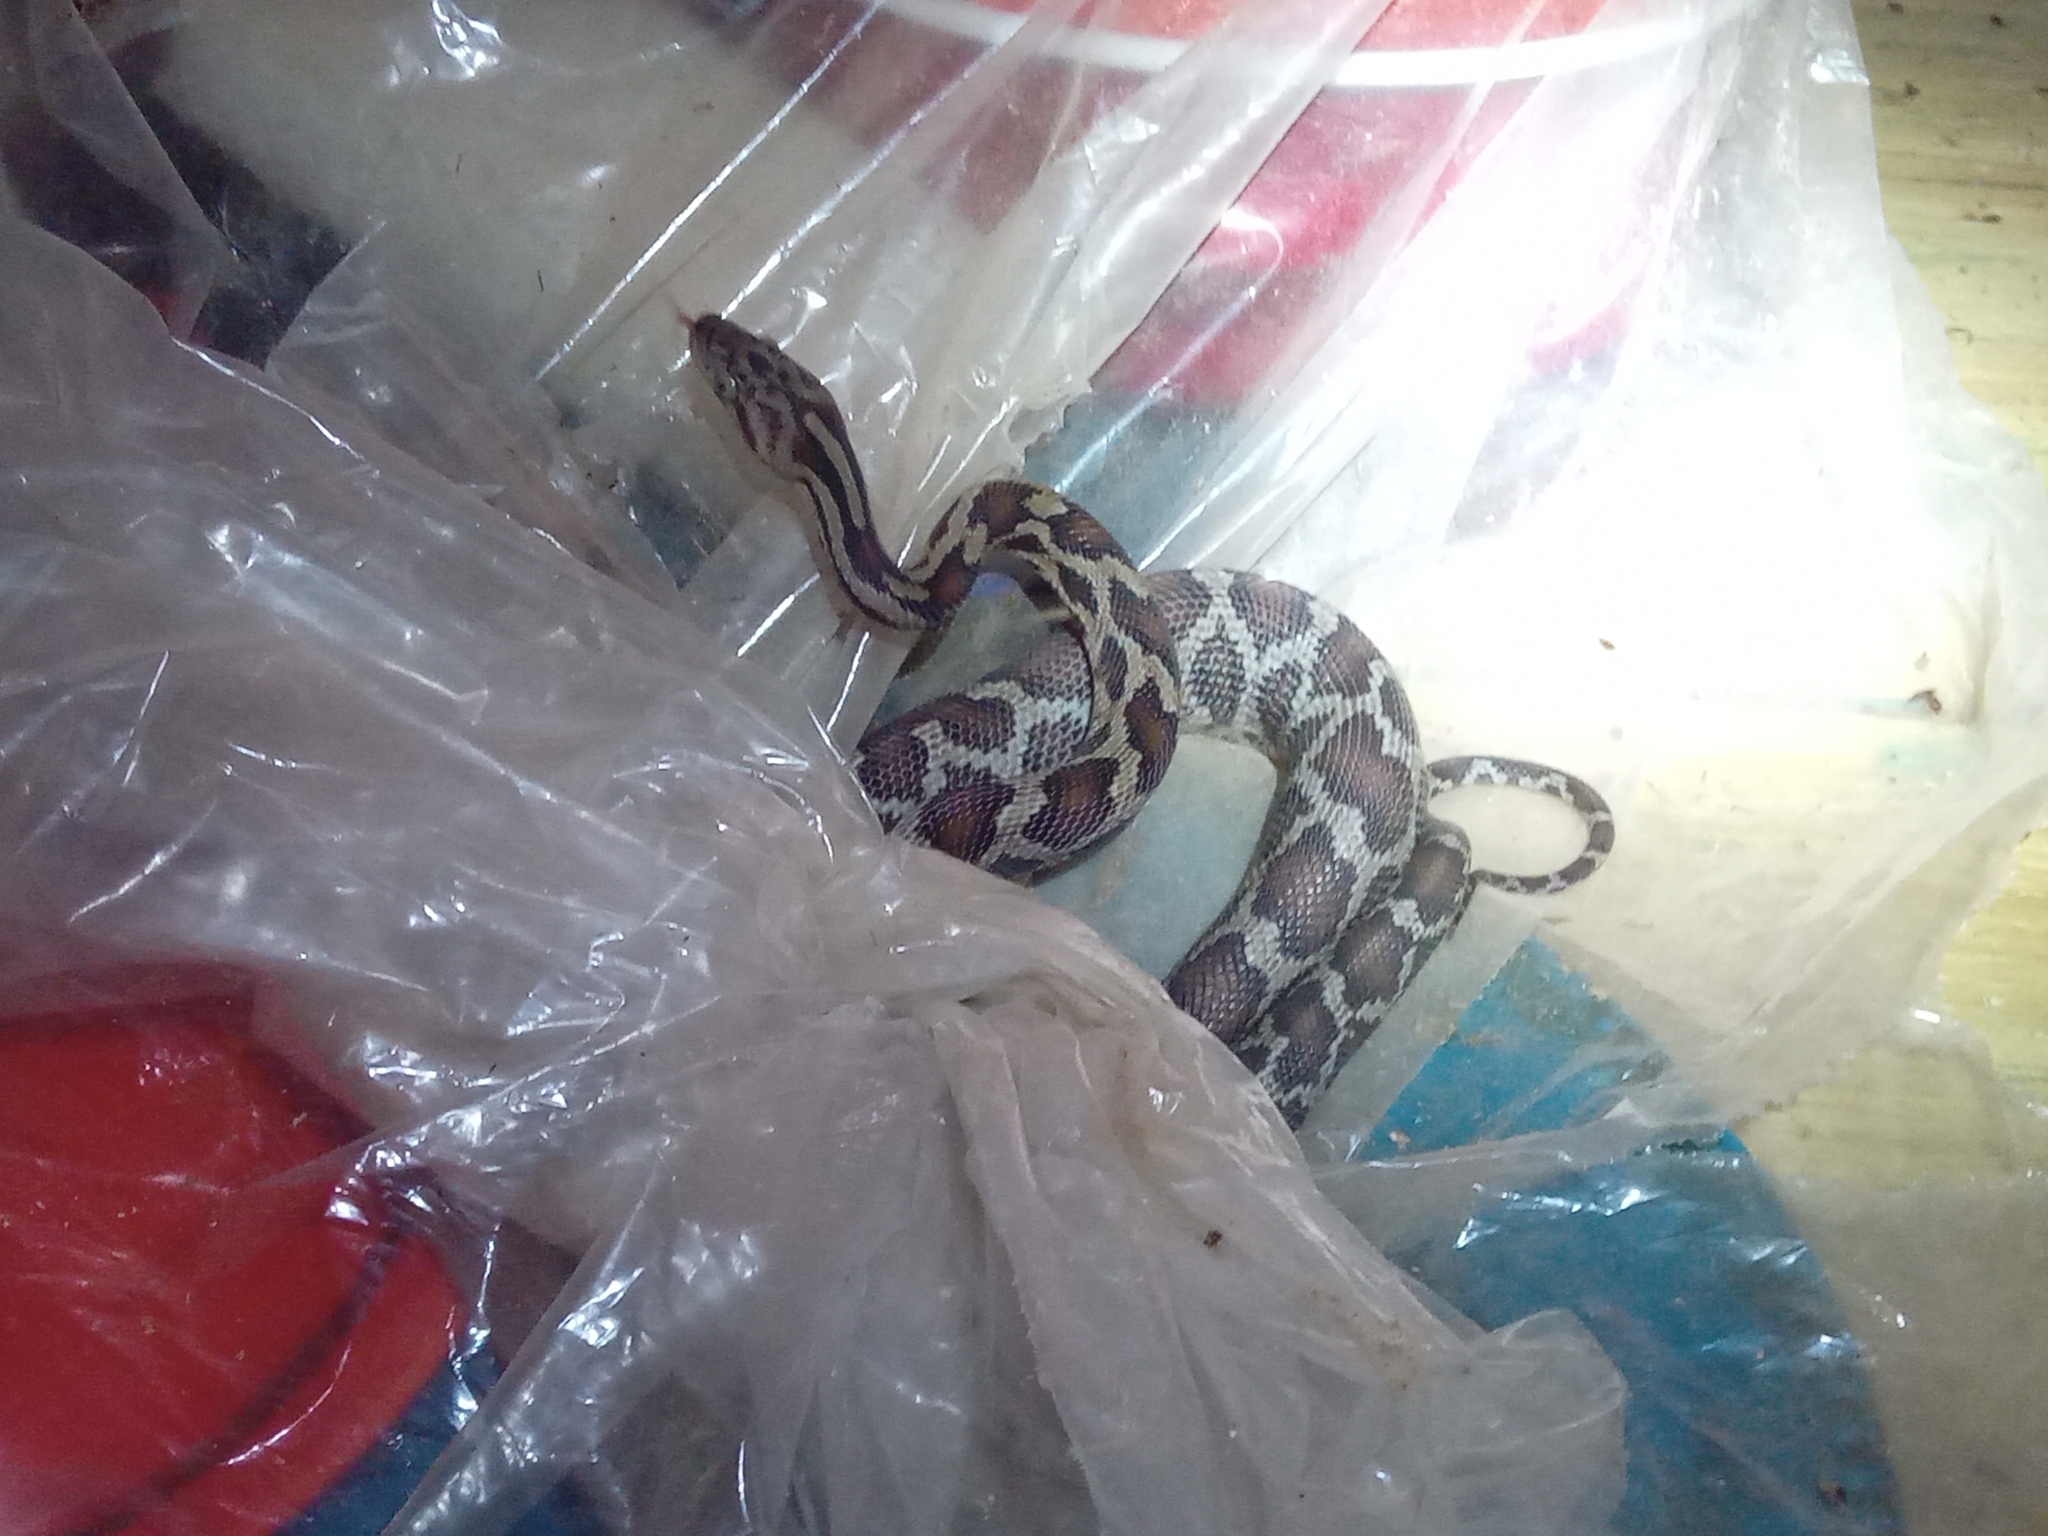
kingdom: Animalia
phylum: Chordata
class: Squamata
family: Colubridae
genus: Pseudelaphe
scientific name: Pseudelaphe phaescens
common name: Yucatan rat snake
